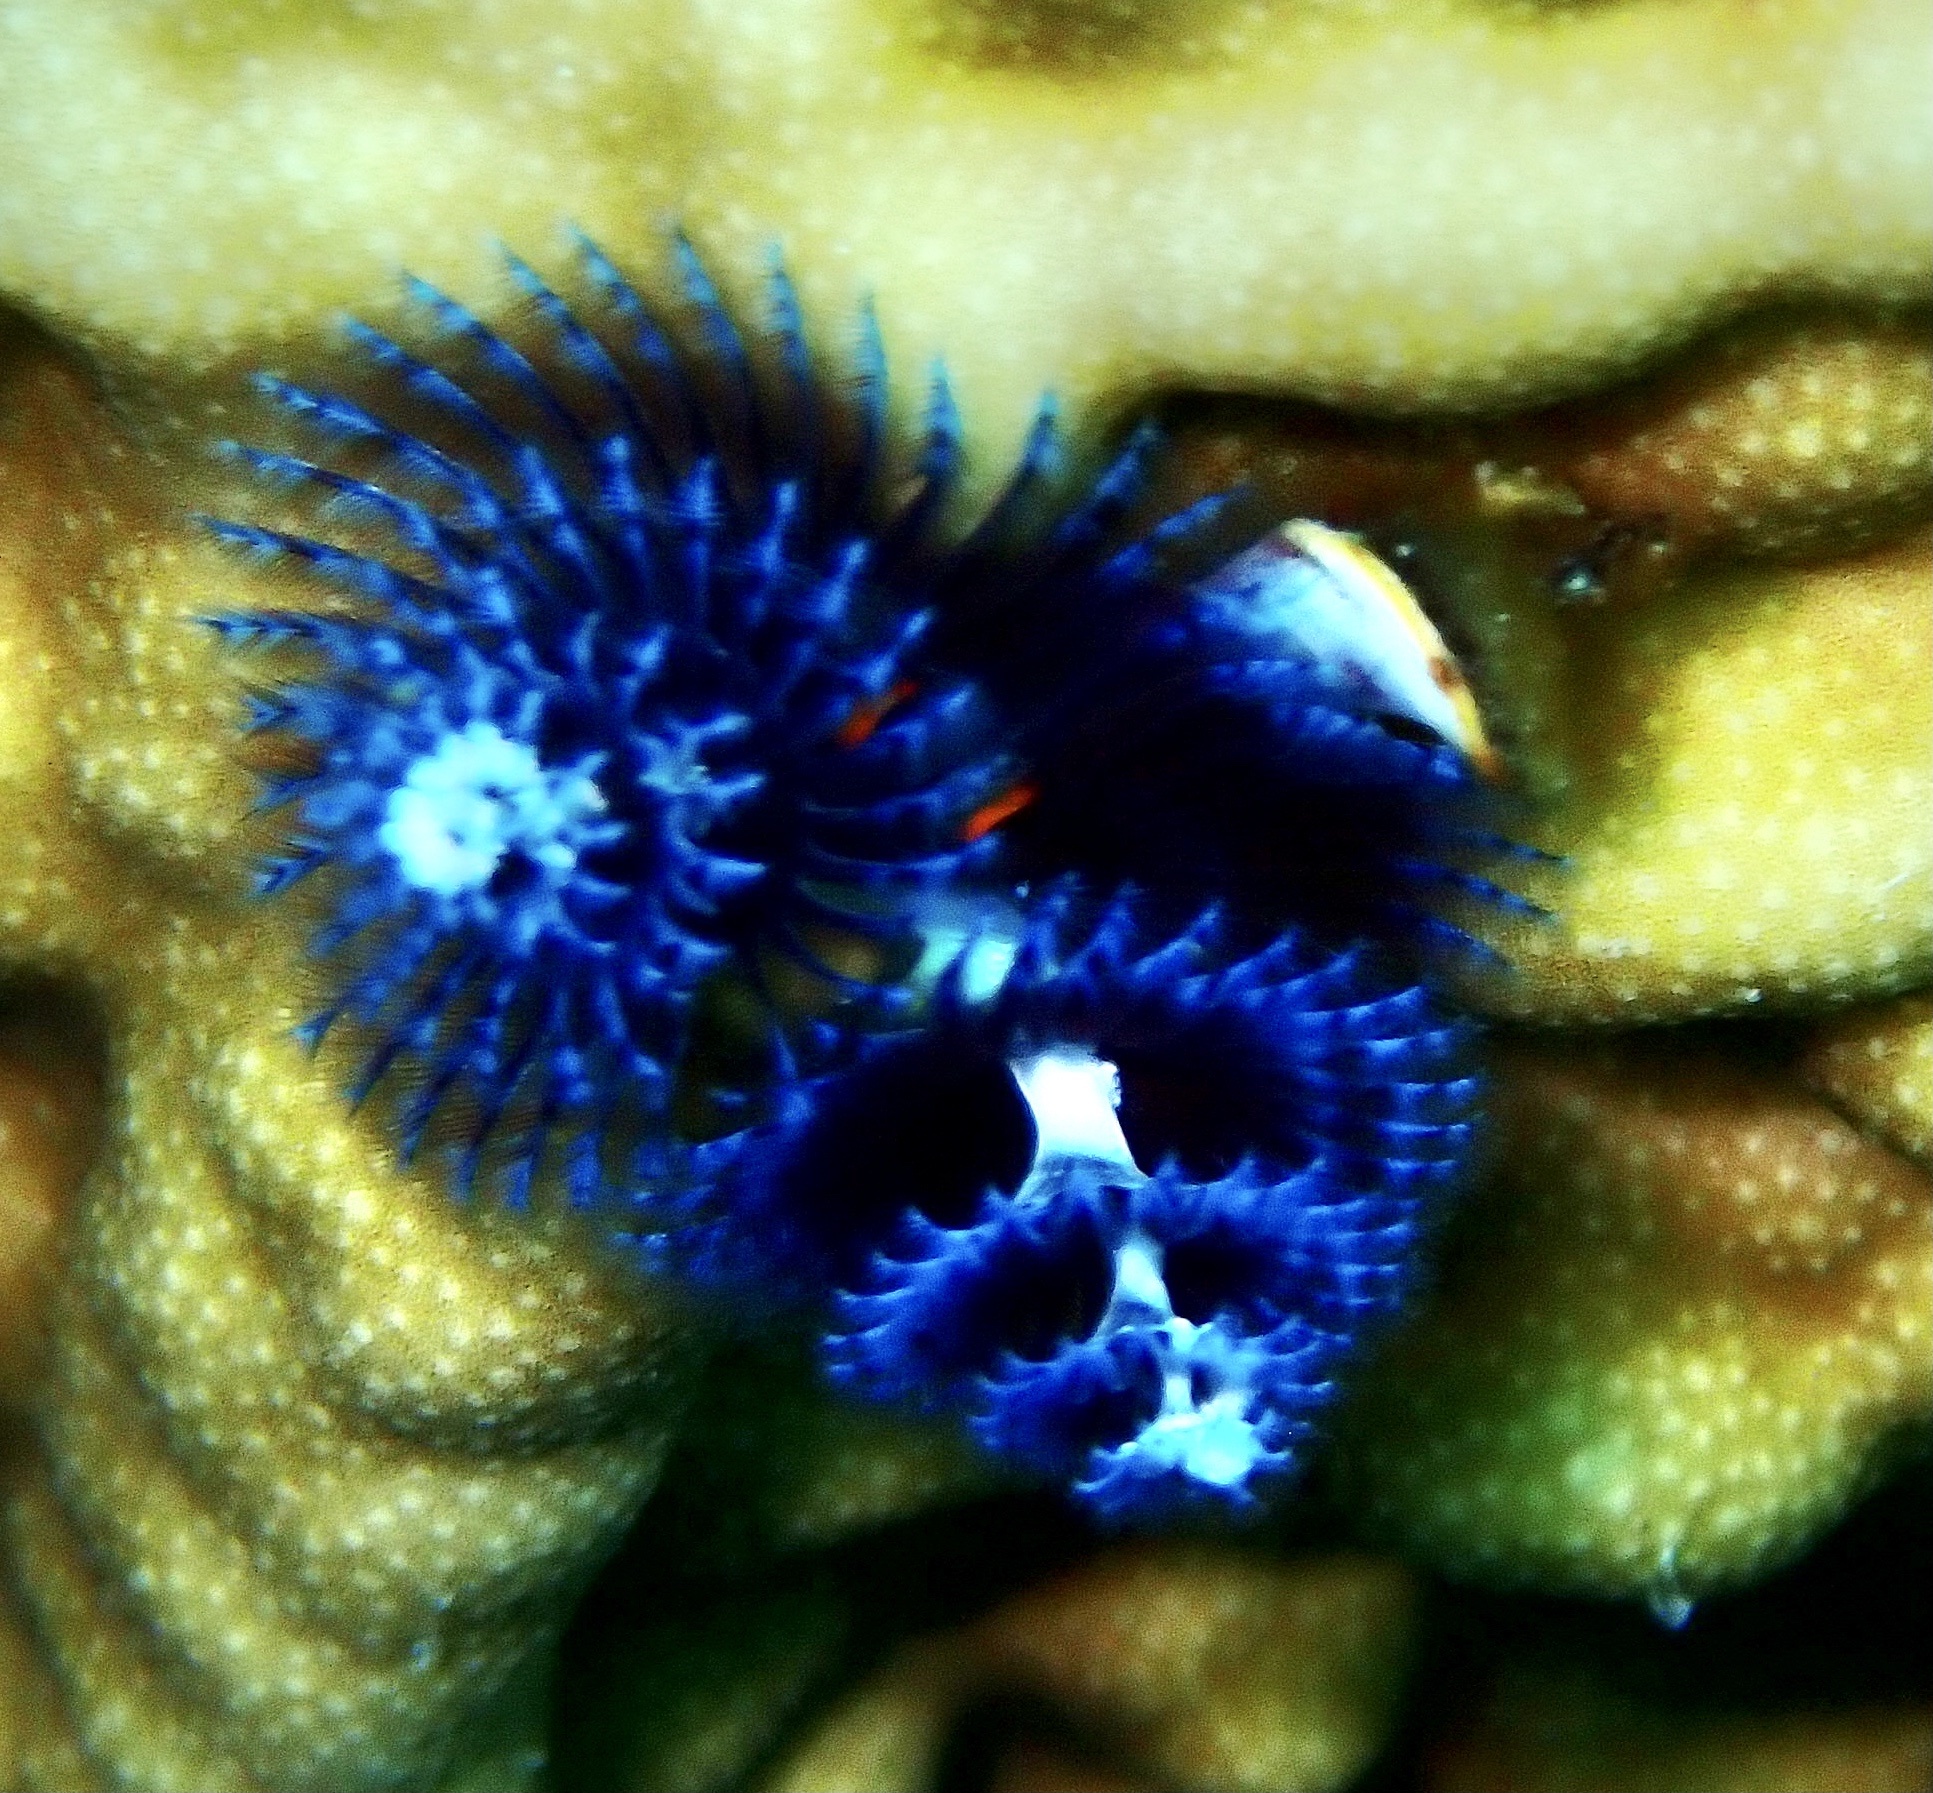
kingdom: Animalia
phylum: Annelida
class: Polychaeta
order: Sabellida
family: Serpulidae
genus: Spirobranchus
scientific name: Spirobranchus
